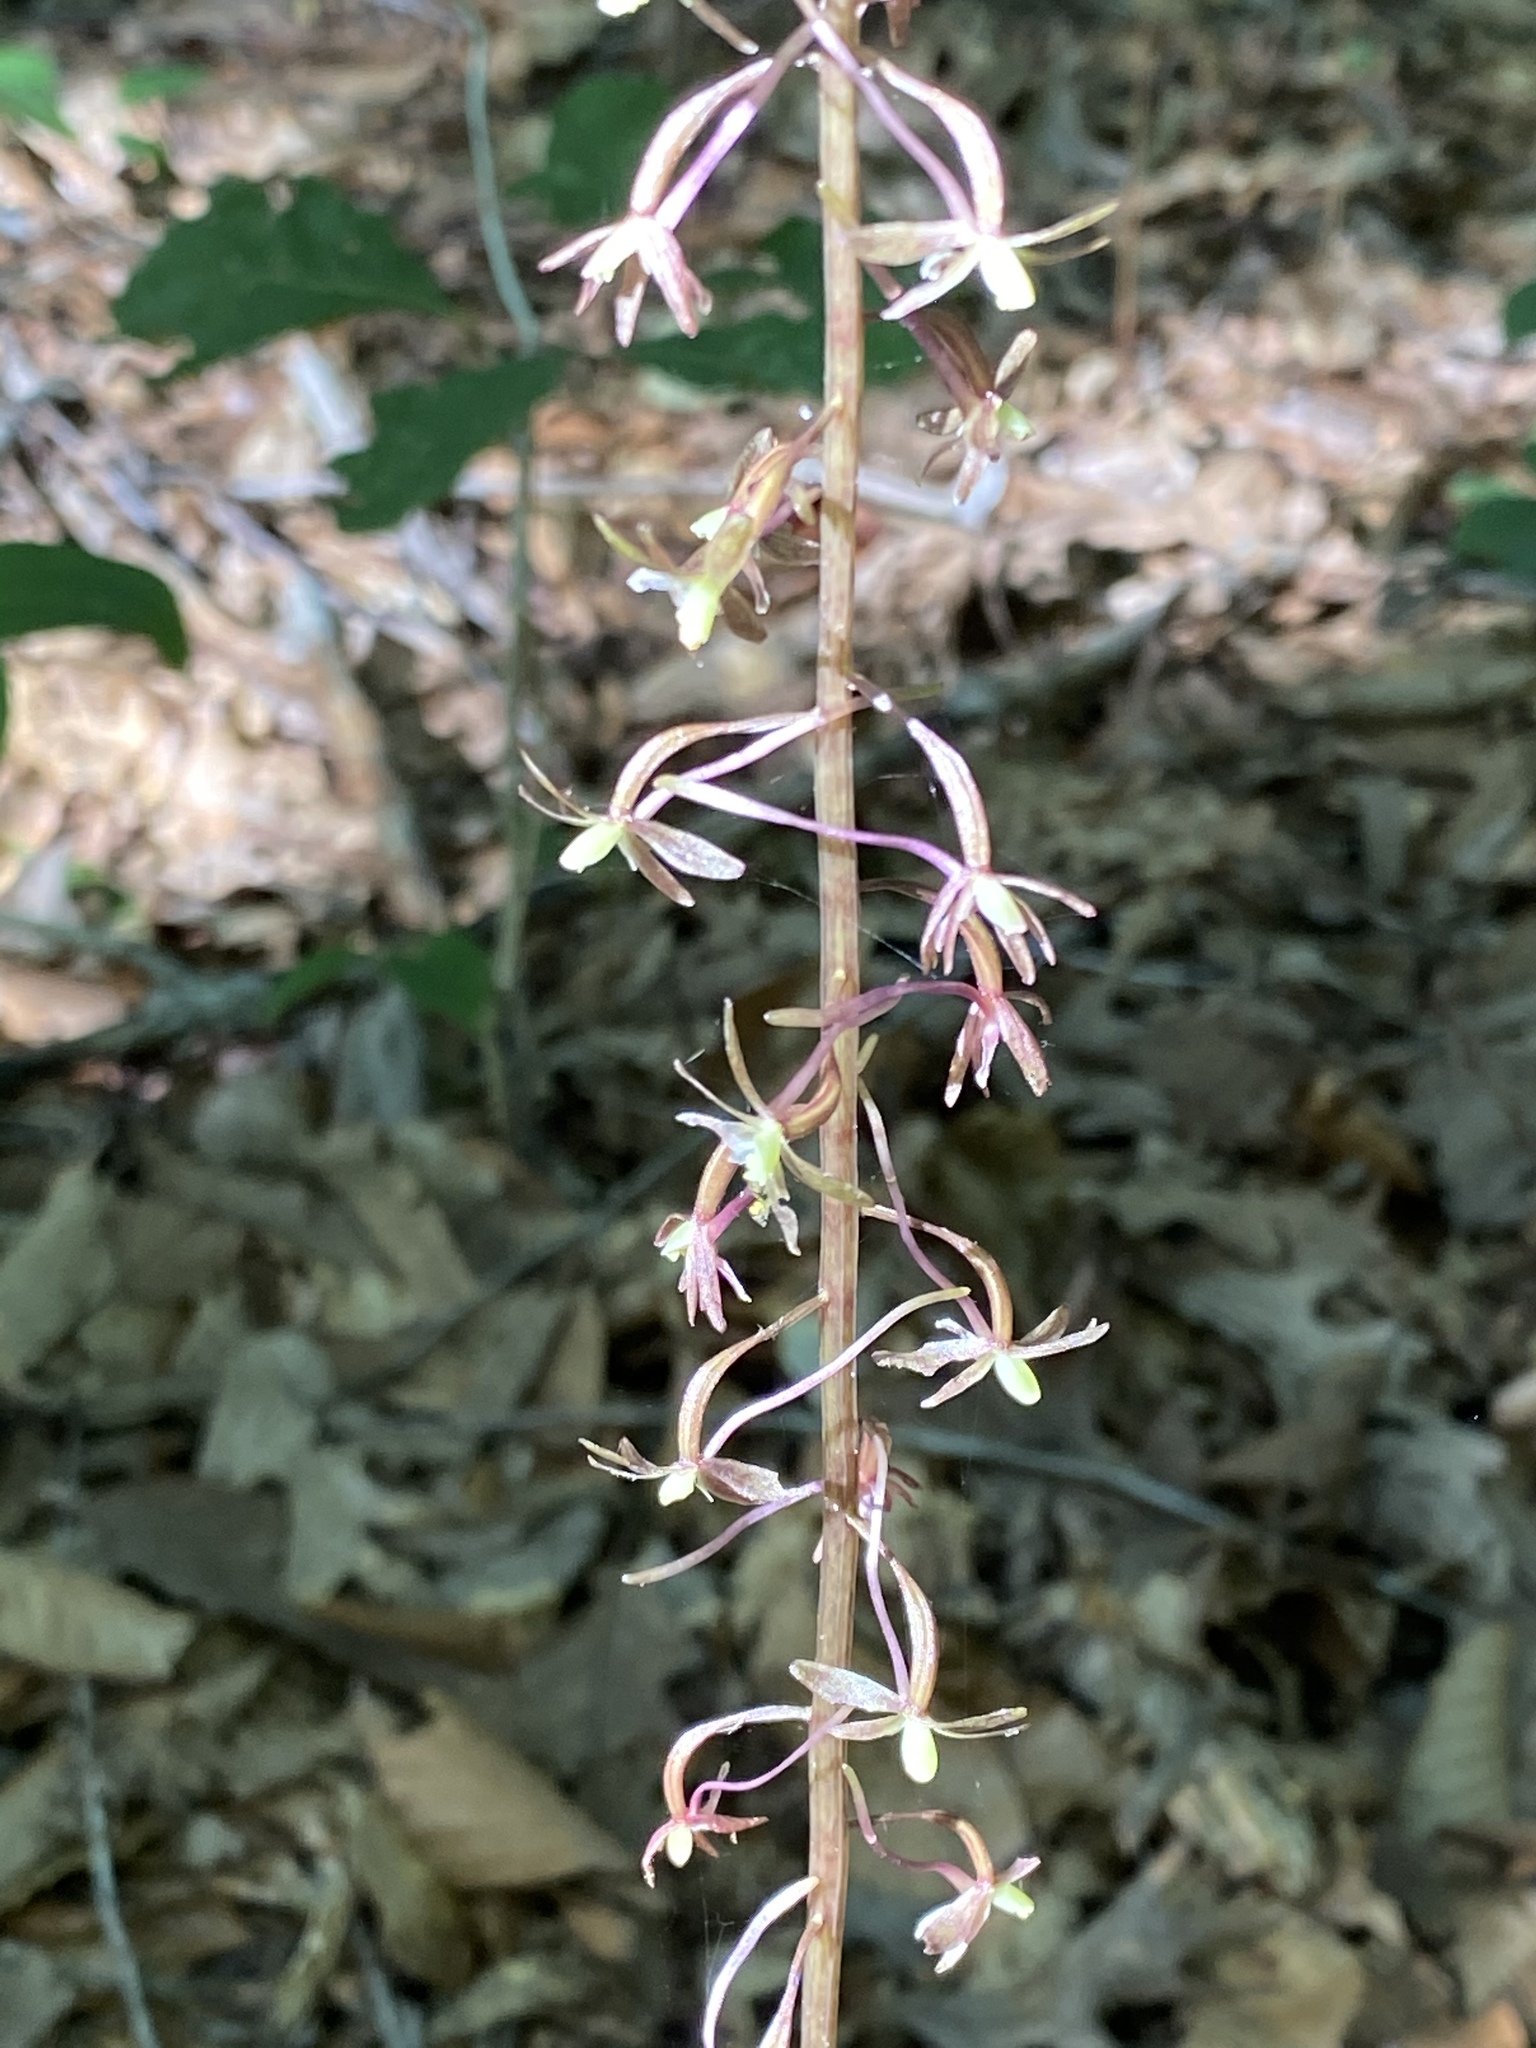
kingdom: Plantae
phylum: Tracheophyta
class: Liliopsida
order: Asparagales
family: Orchidaceae
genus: Tipularia
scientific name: Tipularia discolor
